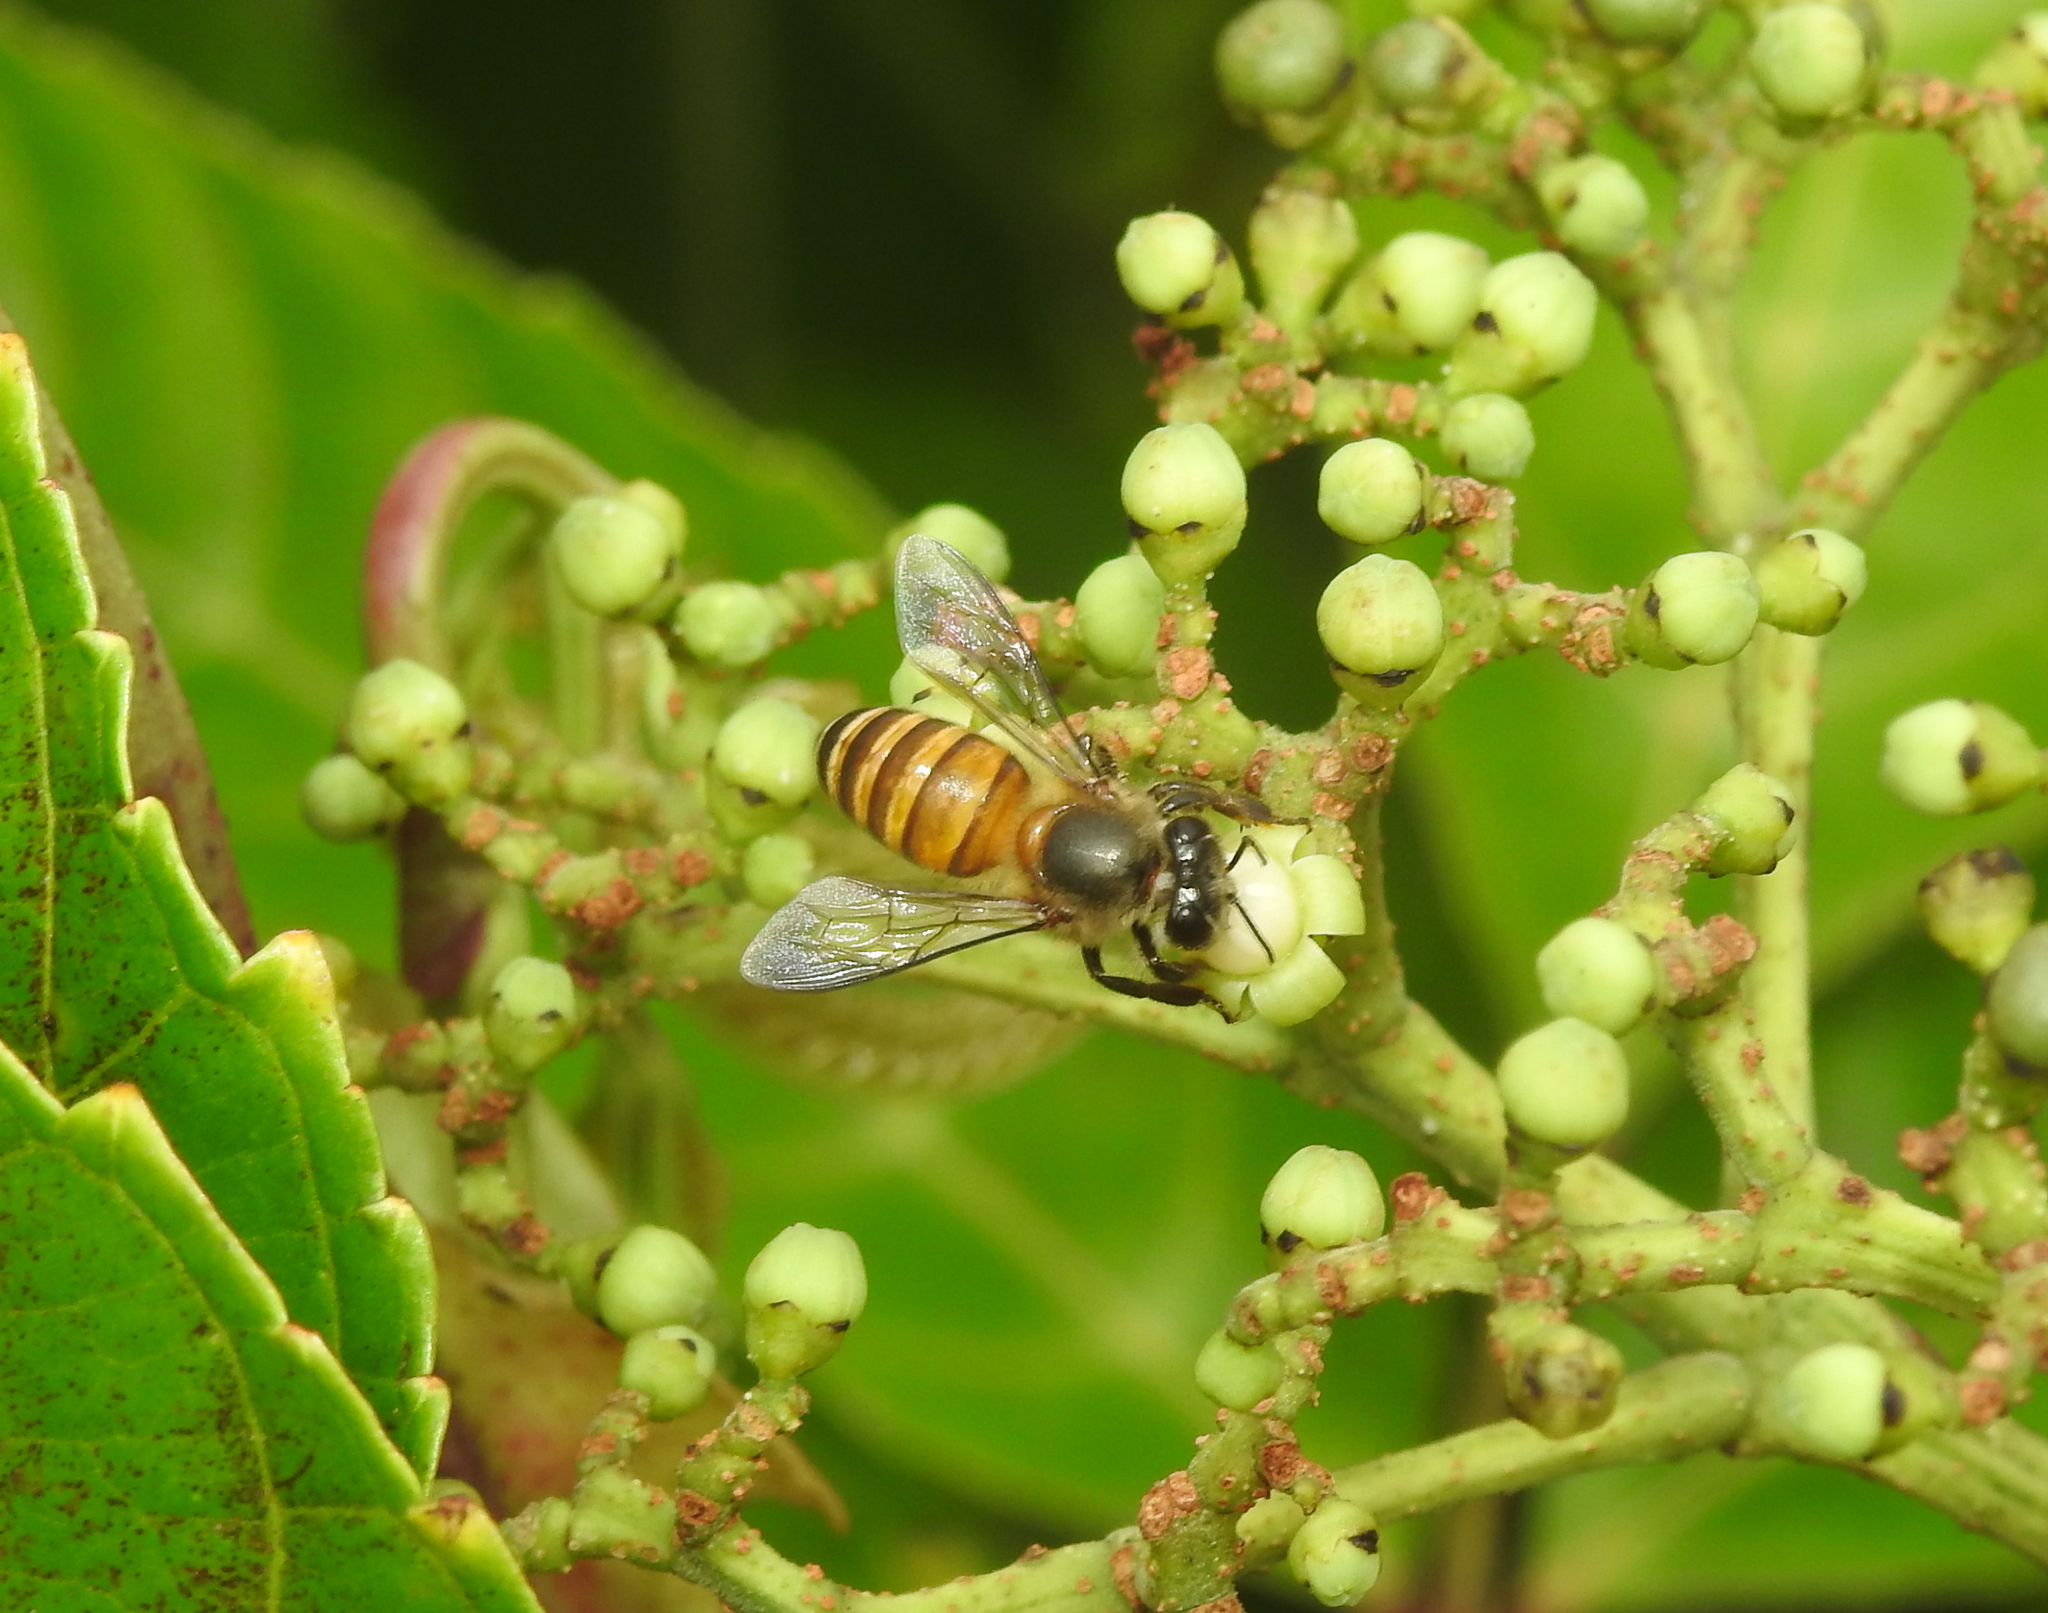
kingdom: Animalia
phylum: Arthropoda
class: Insecta
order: Hymenoptera
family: Apidae
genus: Apis
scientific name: Apis cerana
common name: Honey bee
